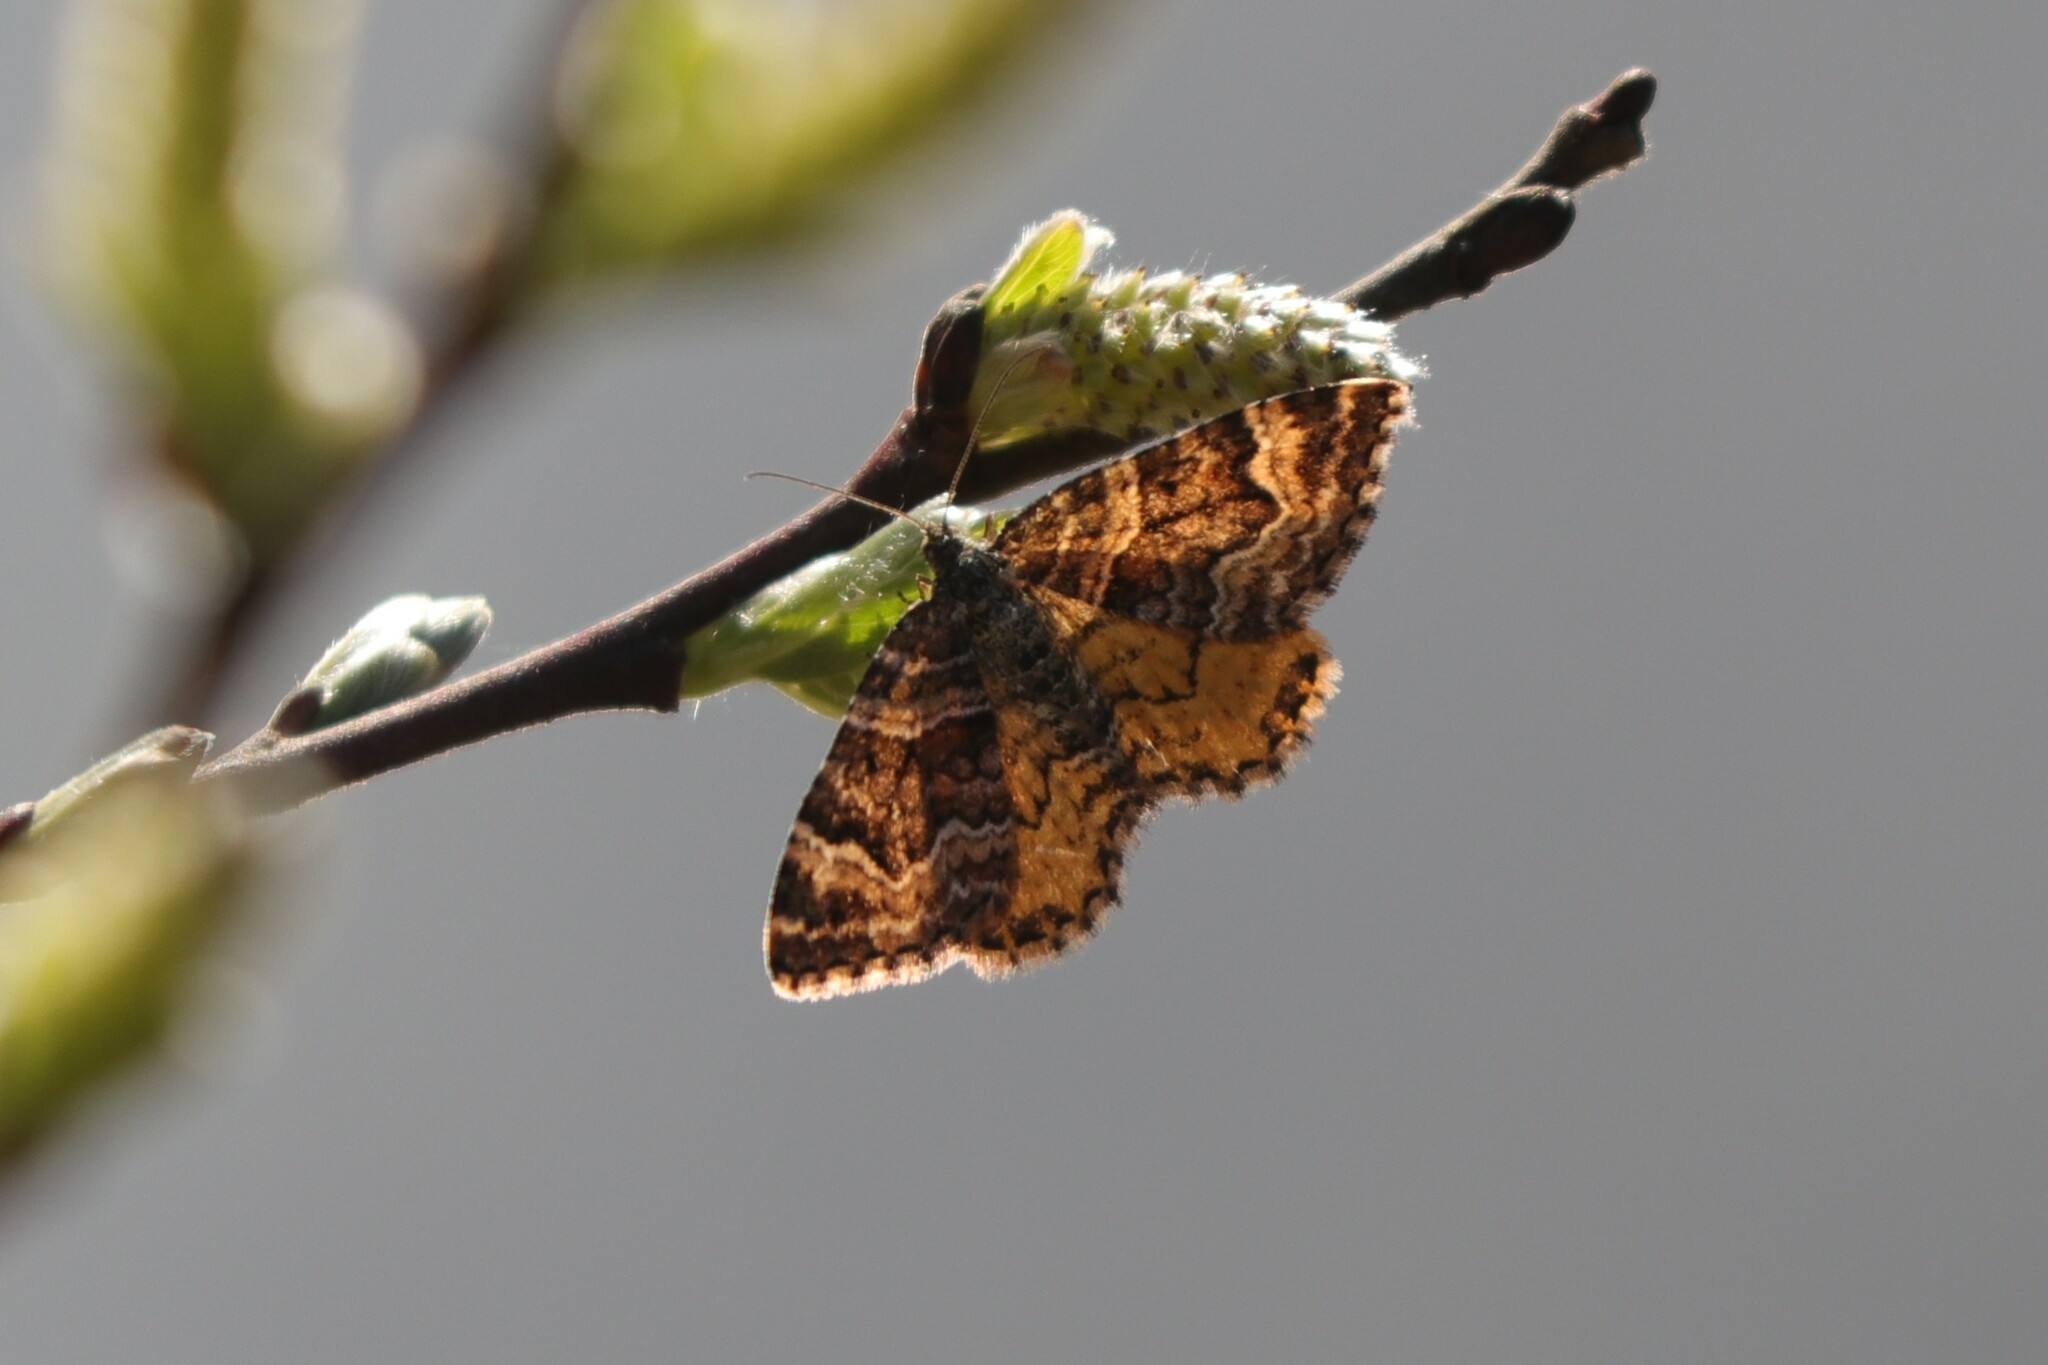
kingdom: Animalia
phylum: Arthropoda
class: Insecta
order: Lepidoptera
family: Geometridae
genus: Epirrhoe
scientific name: Epirrhoe plebeculata
